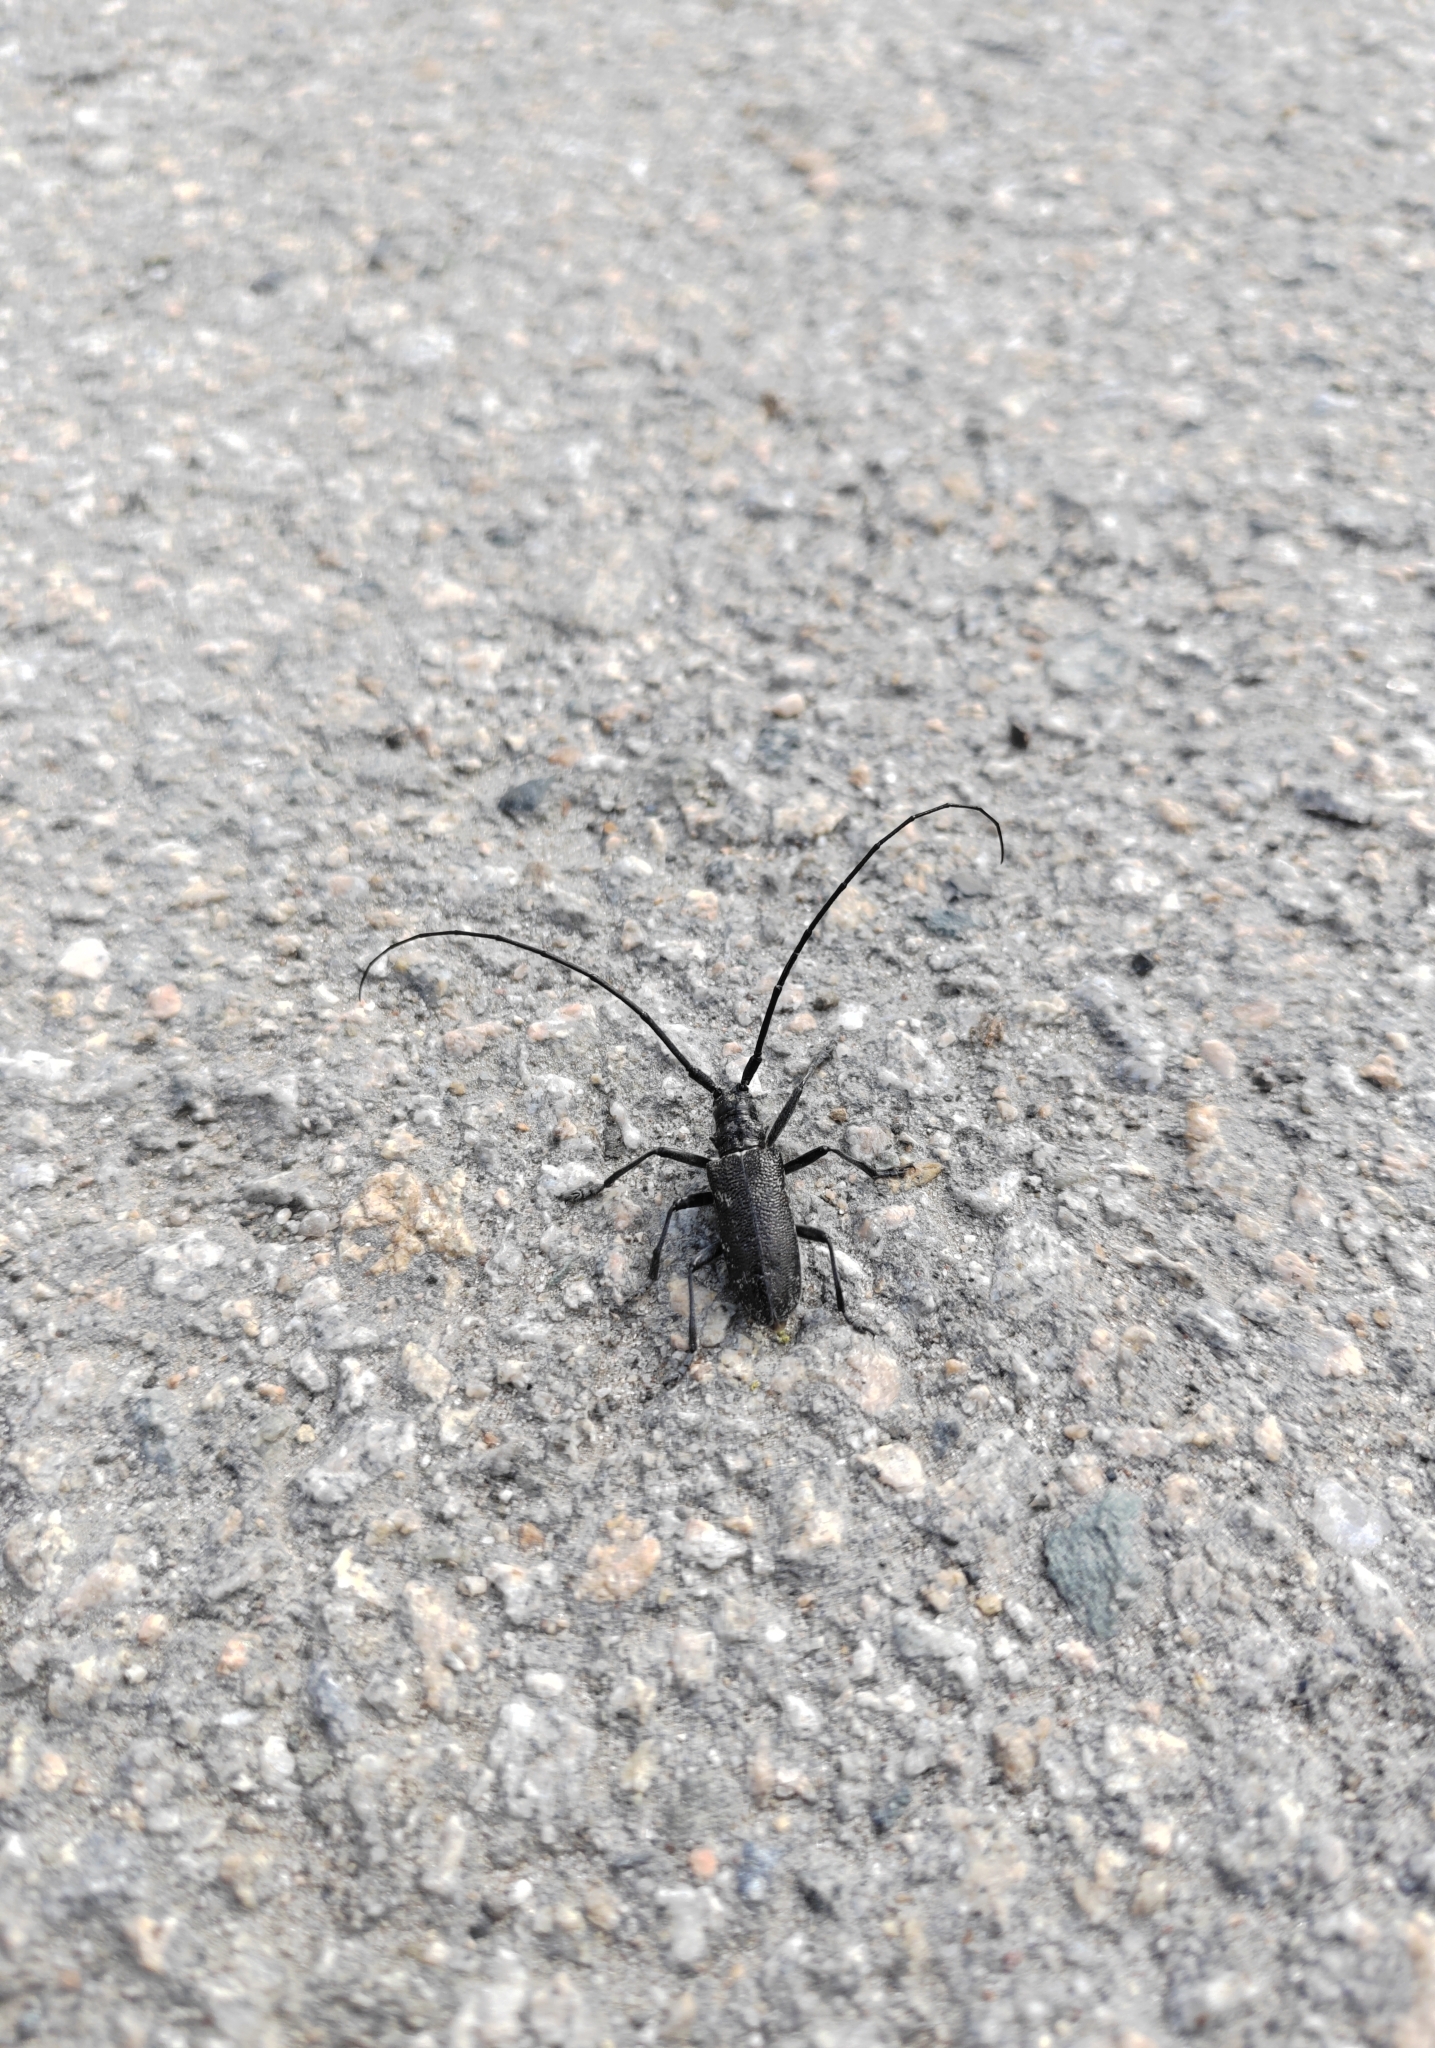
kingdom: Animalia
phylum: Arthropoda
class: Insecta
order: Coleoptera
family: Cerambycidae
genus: Monochamus
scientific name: Monochamus sutor
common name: Pine sawyer
